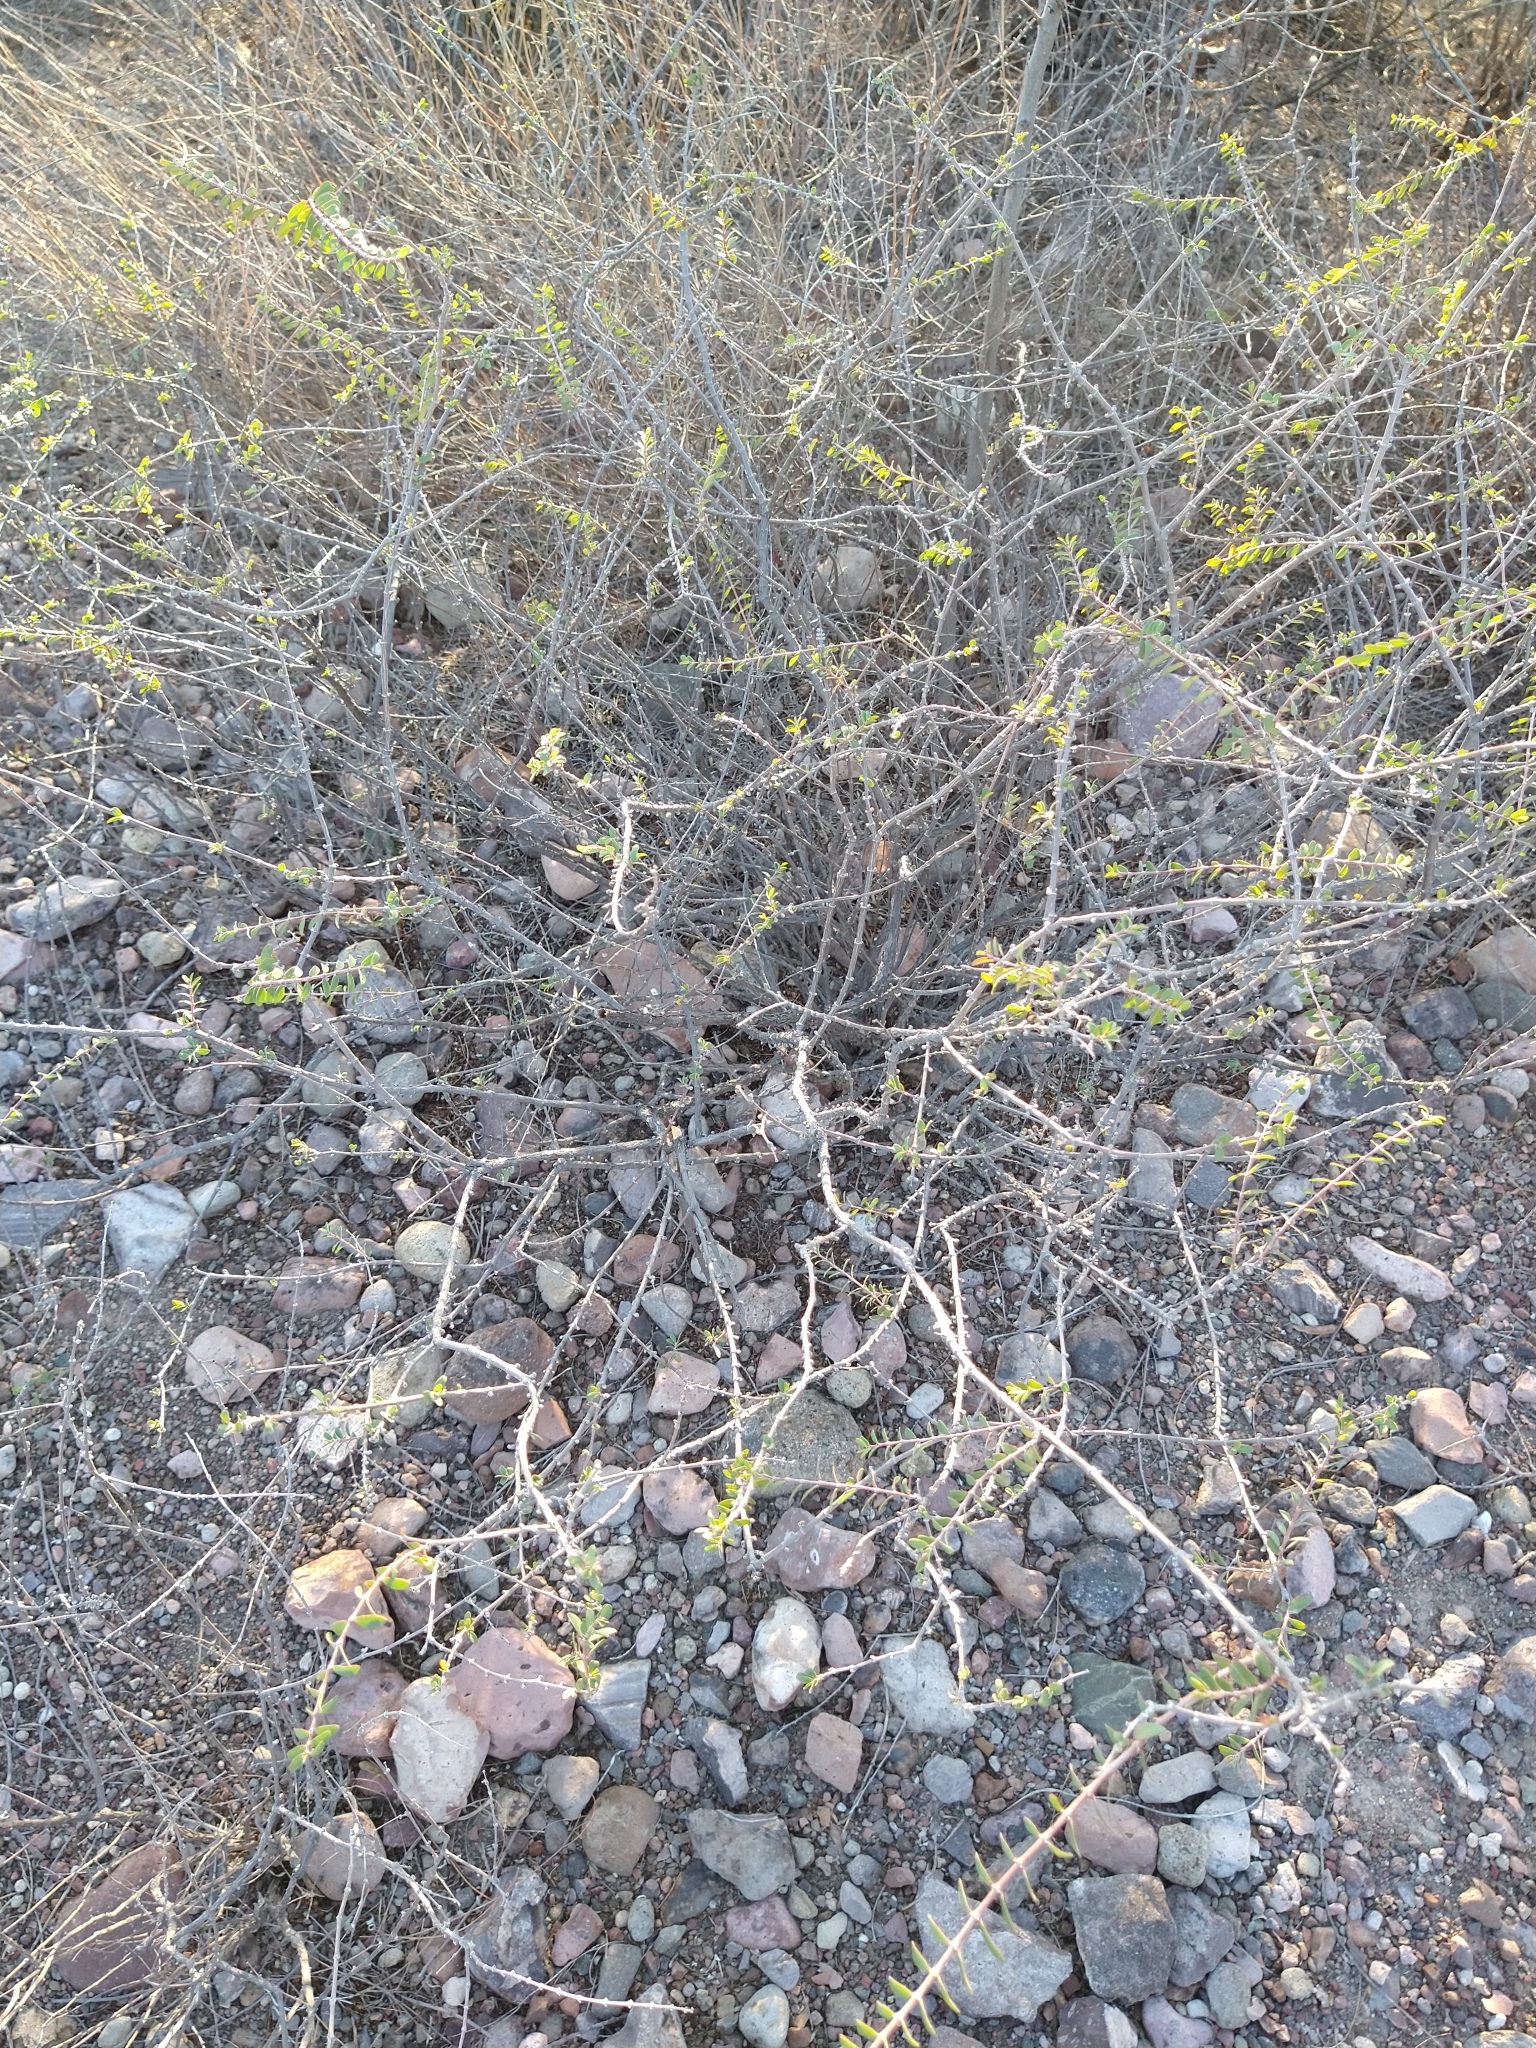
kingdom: Plantae
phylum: Tracheophyta
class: Magnoliopsida
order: Malpighiales
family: Euphorbiaceae
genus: Euphorbia
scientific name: Euphorbia magdalenae
